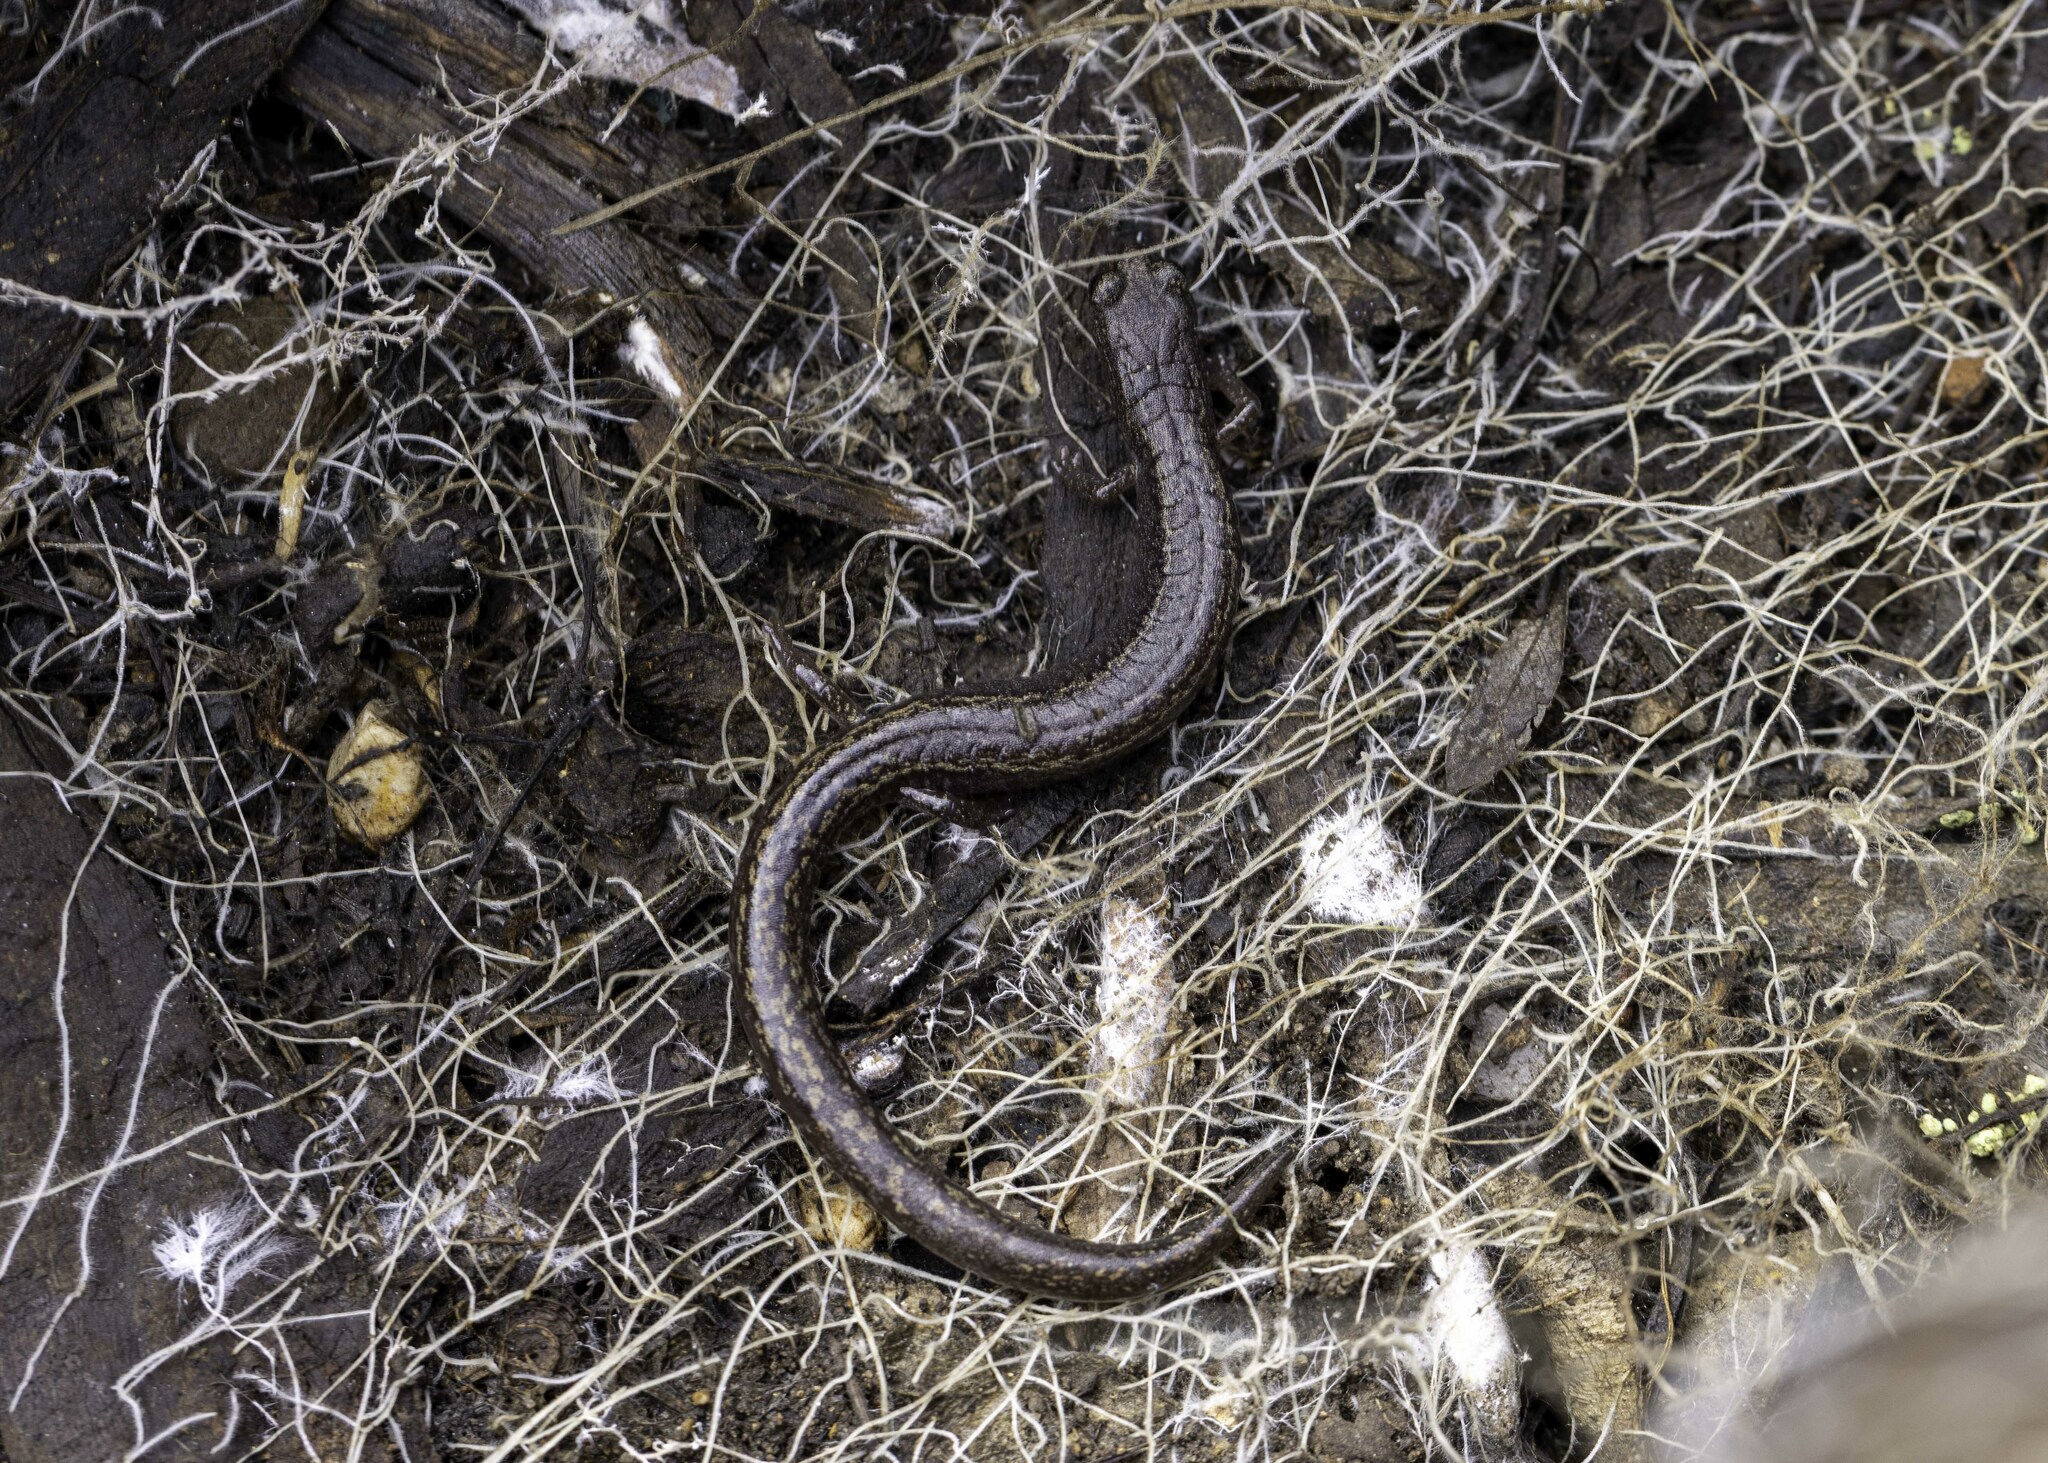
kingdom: Animalia
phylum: Chordata
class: Amphibia
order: Caudata
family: Plethodontidae
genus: Batrachoseps
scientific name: Batrachoseps pacificus
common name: Channel islands slender salamander
